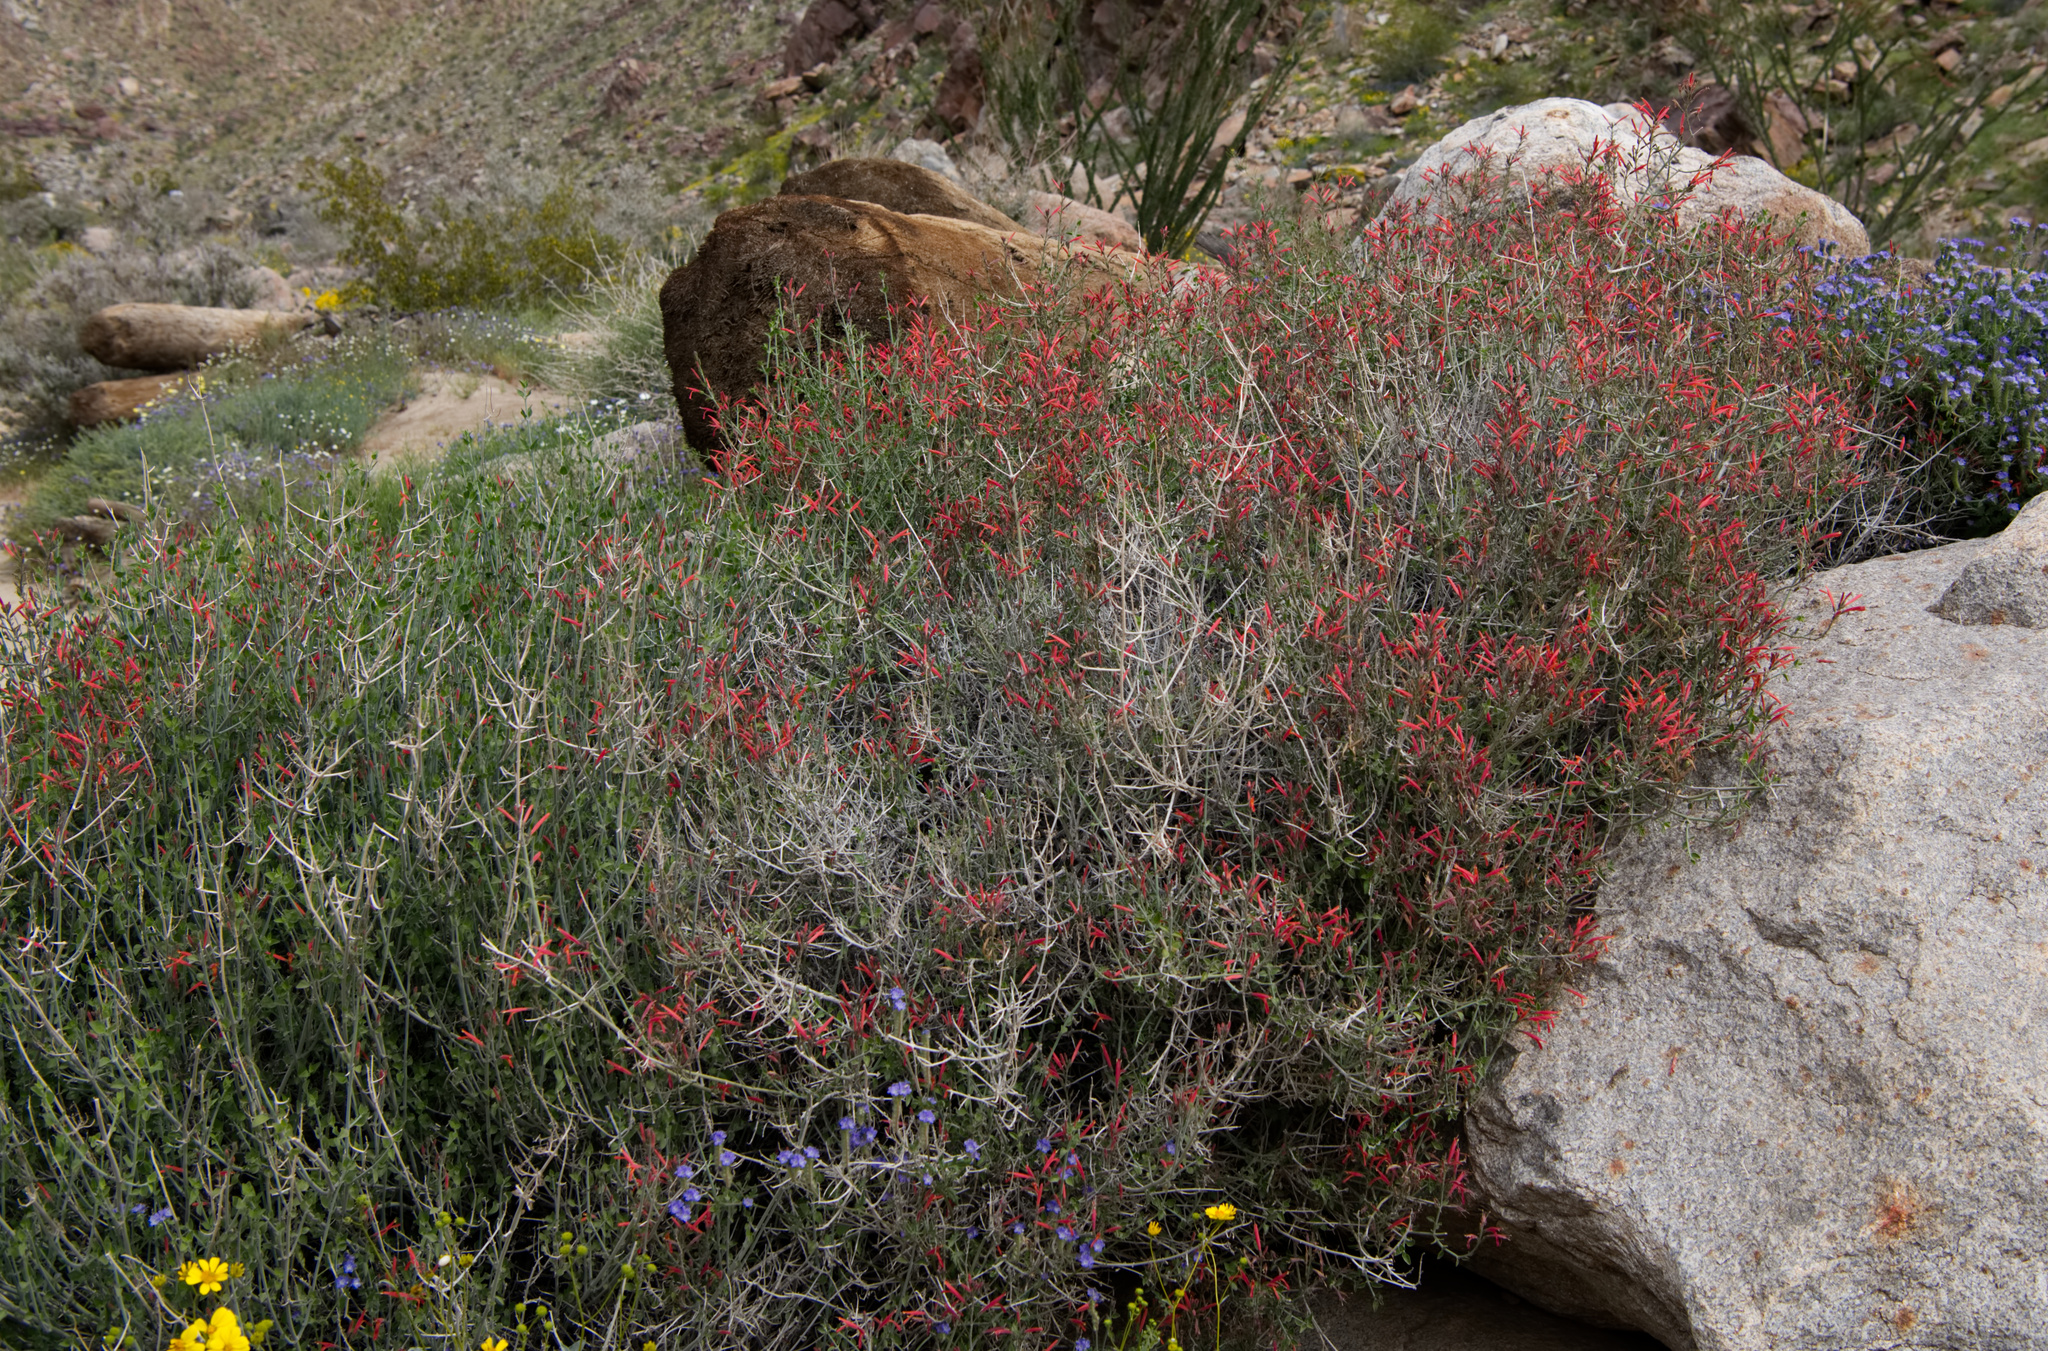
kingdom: Plantae
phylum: Tracheophyta
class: Magnoliopsida
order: Lamiales
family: Acanthaceae
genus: Justicia
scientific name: Justicia californica
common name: Chuparosa-honeysuckle
